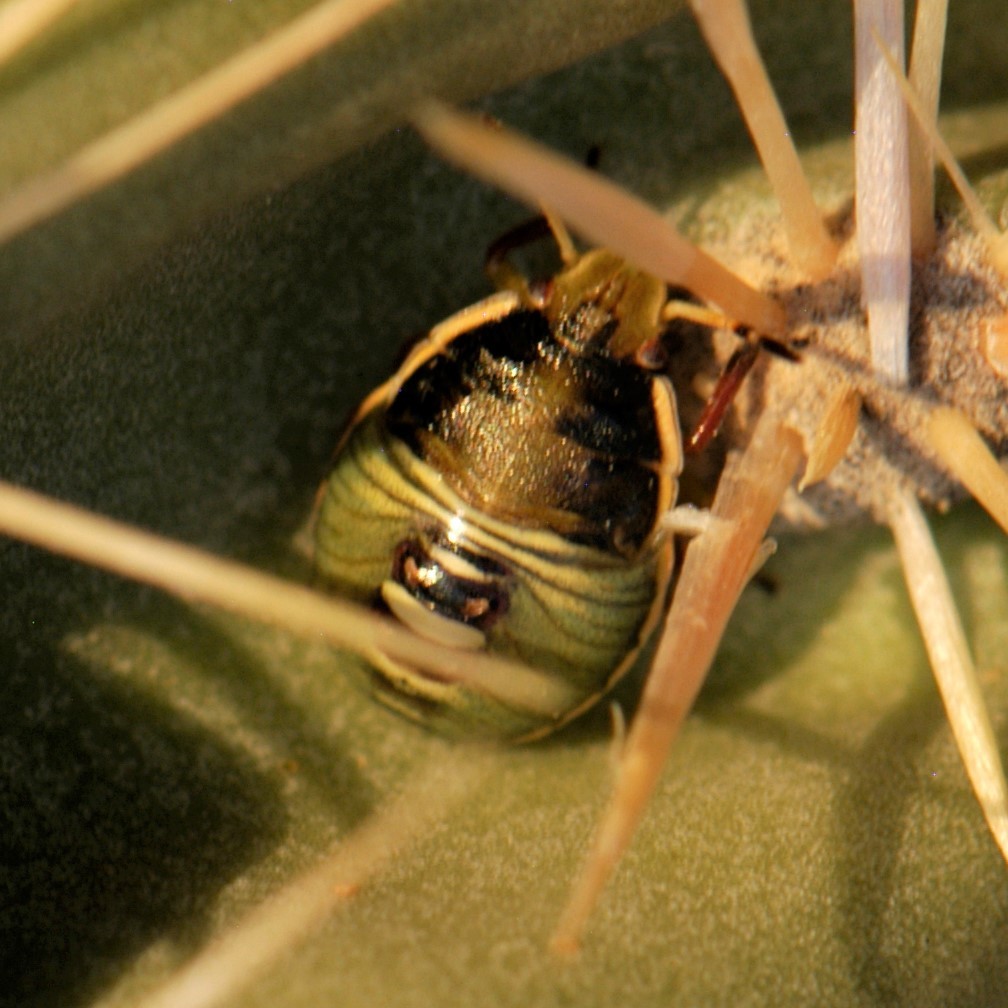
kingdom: Animalia
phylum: Arthropoda
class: Insecta
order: Hemiptera
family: Pentatomidae
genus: Chlorochroa
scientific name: Chlorochroa opuntiae
